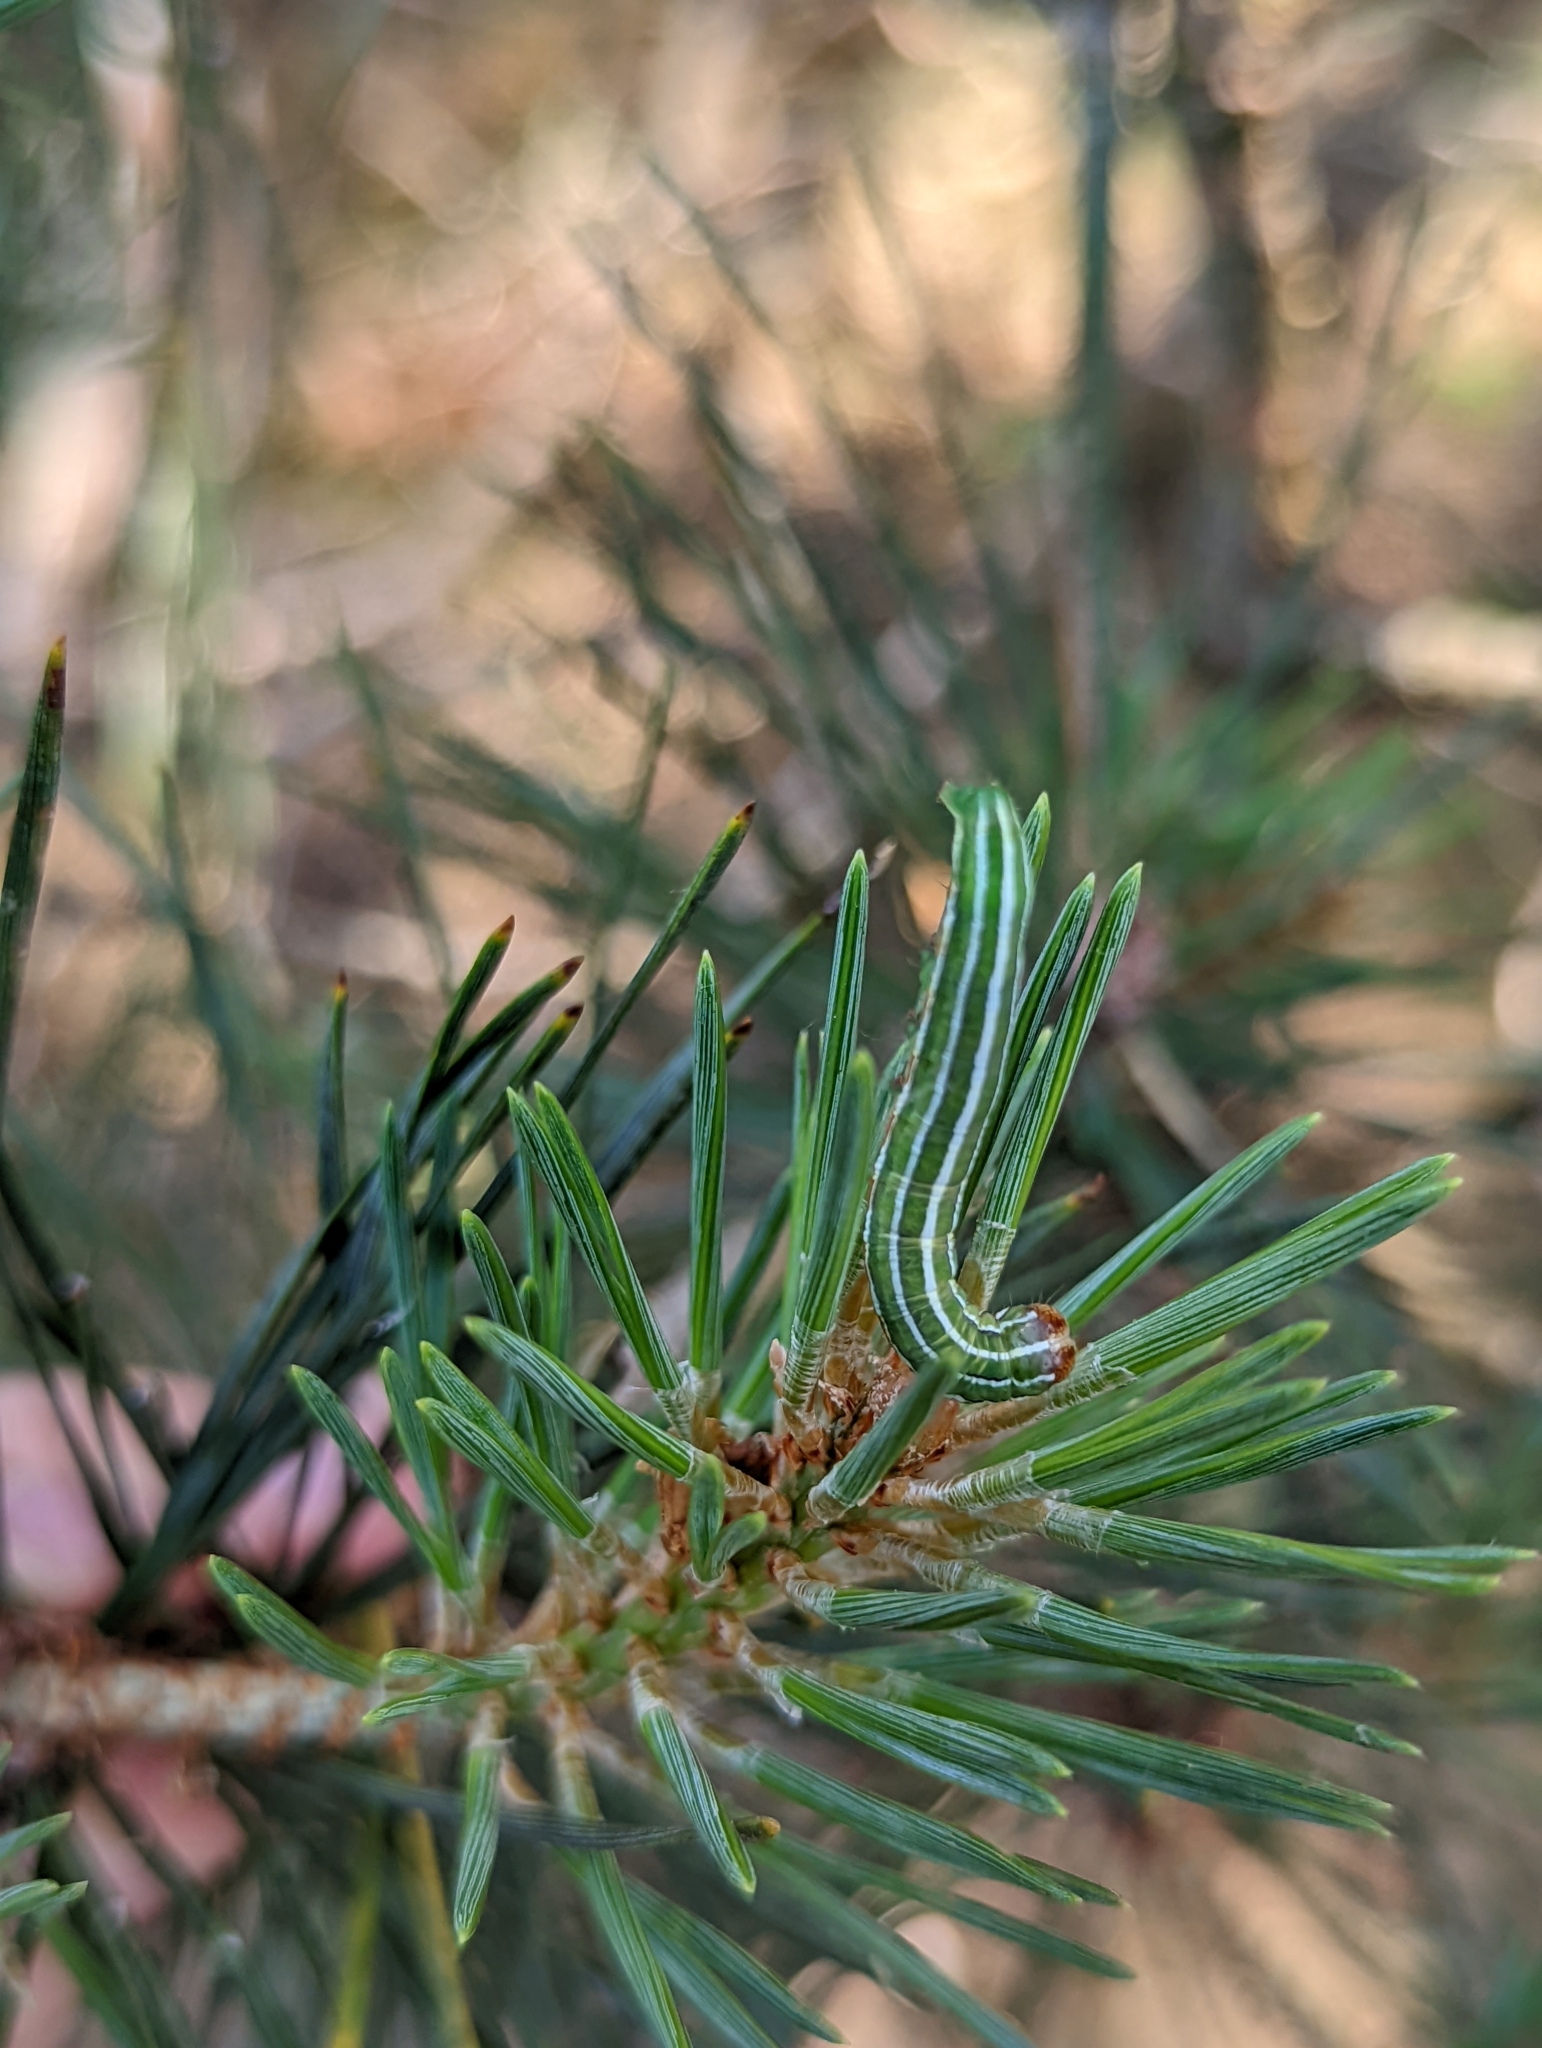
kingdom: Animalia
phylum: Arthropoda
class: Insecta
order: Lepidoptera
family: Noctuidae
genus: Panolis
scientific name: Panolis flammea
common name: Pine beauty
